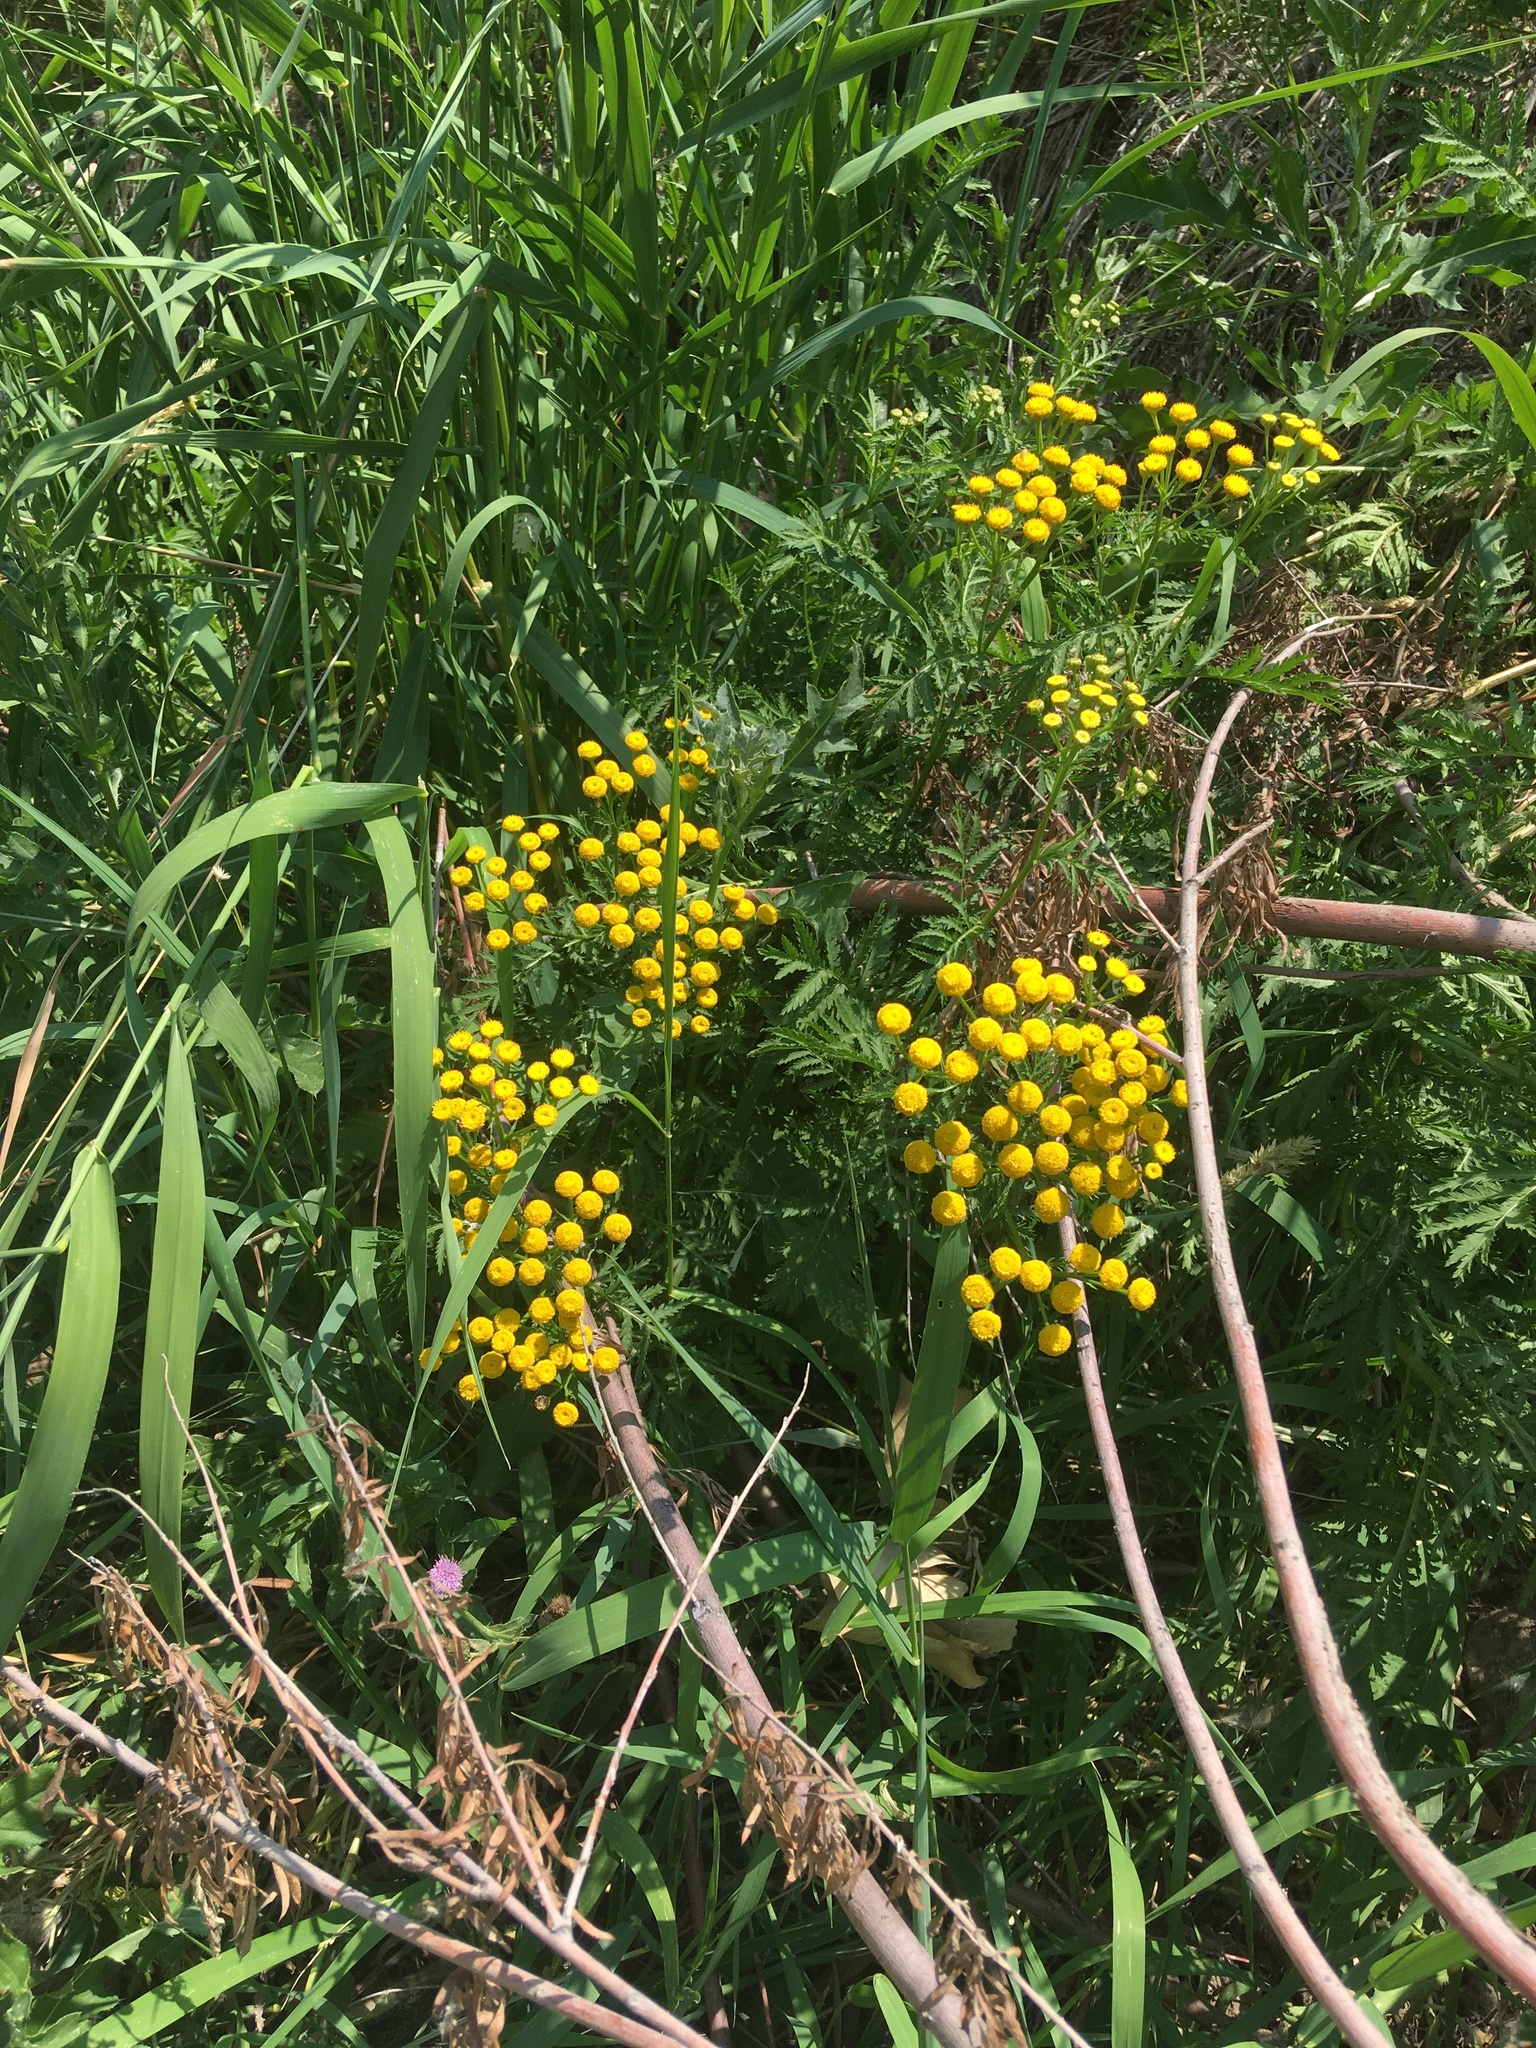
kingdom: Plantae
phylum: Tracheophyta
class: Magnoliopsida
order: Asterales
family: Asteraceae
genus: Tanacetum
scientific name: Tanacetum vulgare
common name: Common tansy
